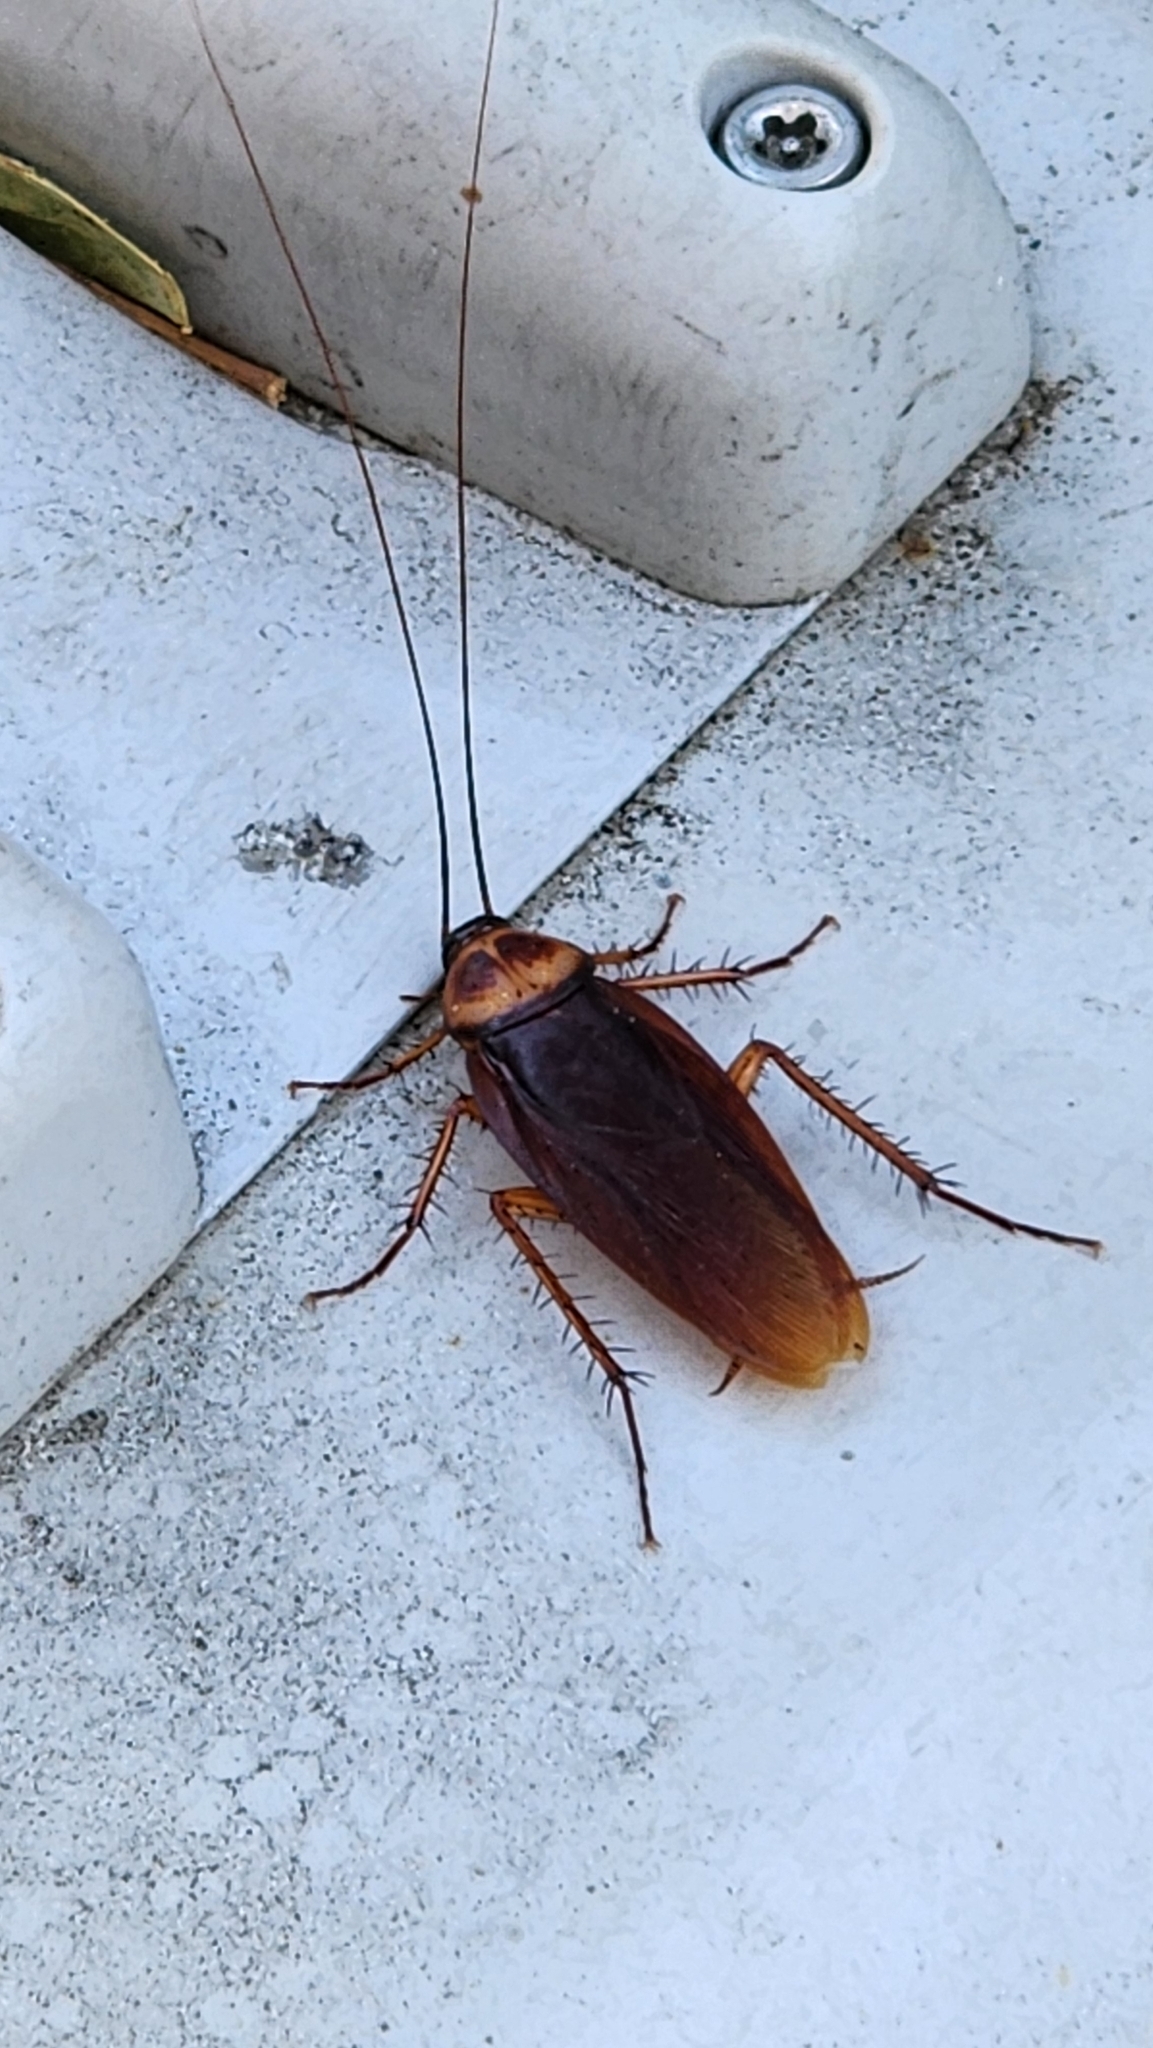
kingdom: Animalia
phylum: Arthropoda
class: Insecta
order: Blattodea
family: Blattidae
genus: Periplaneta
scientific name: Periplaneta americana
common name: American cockroach
